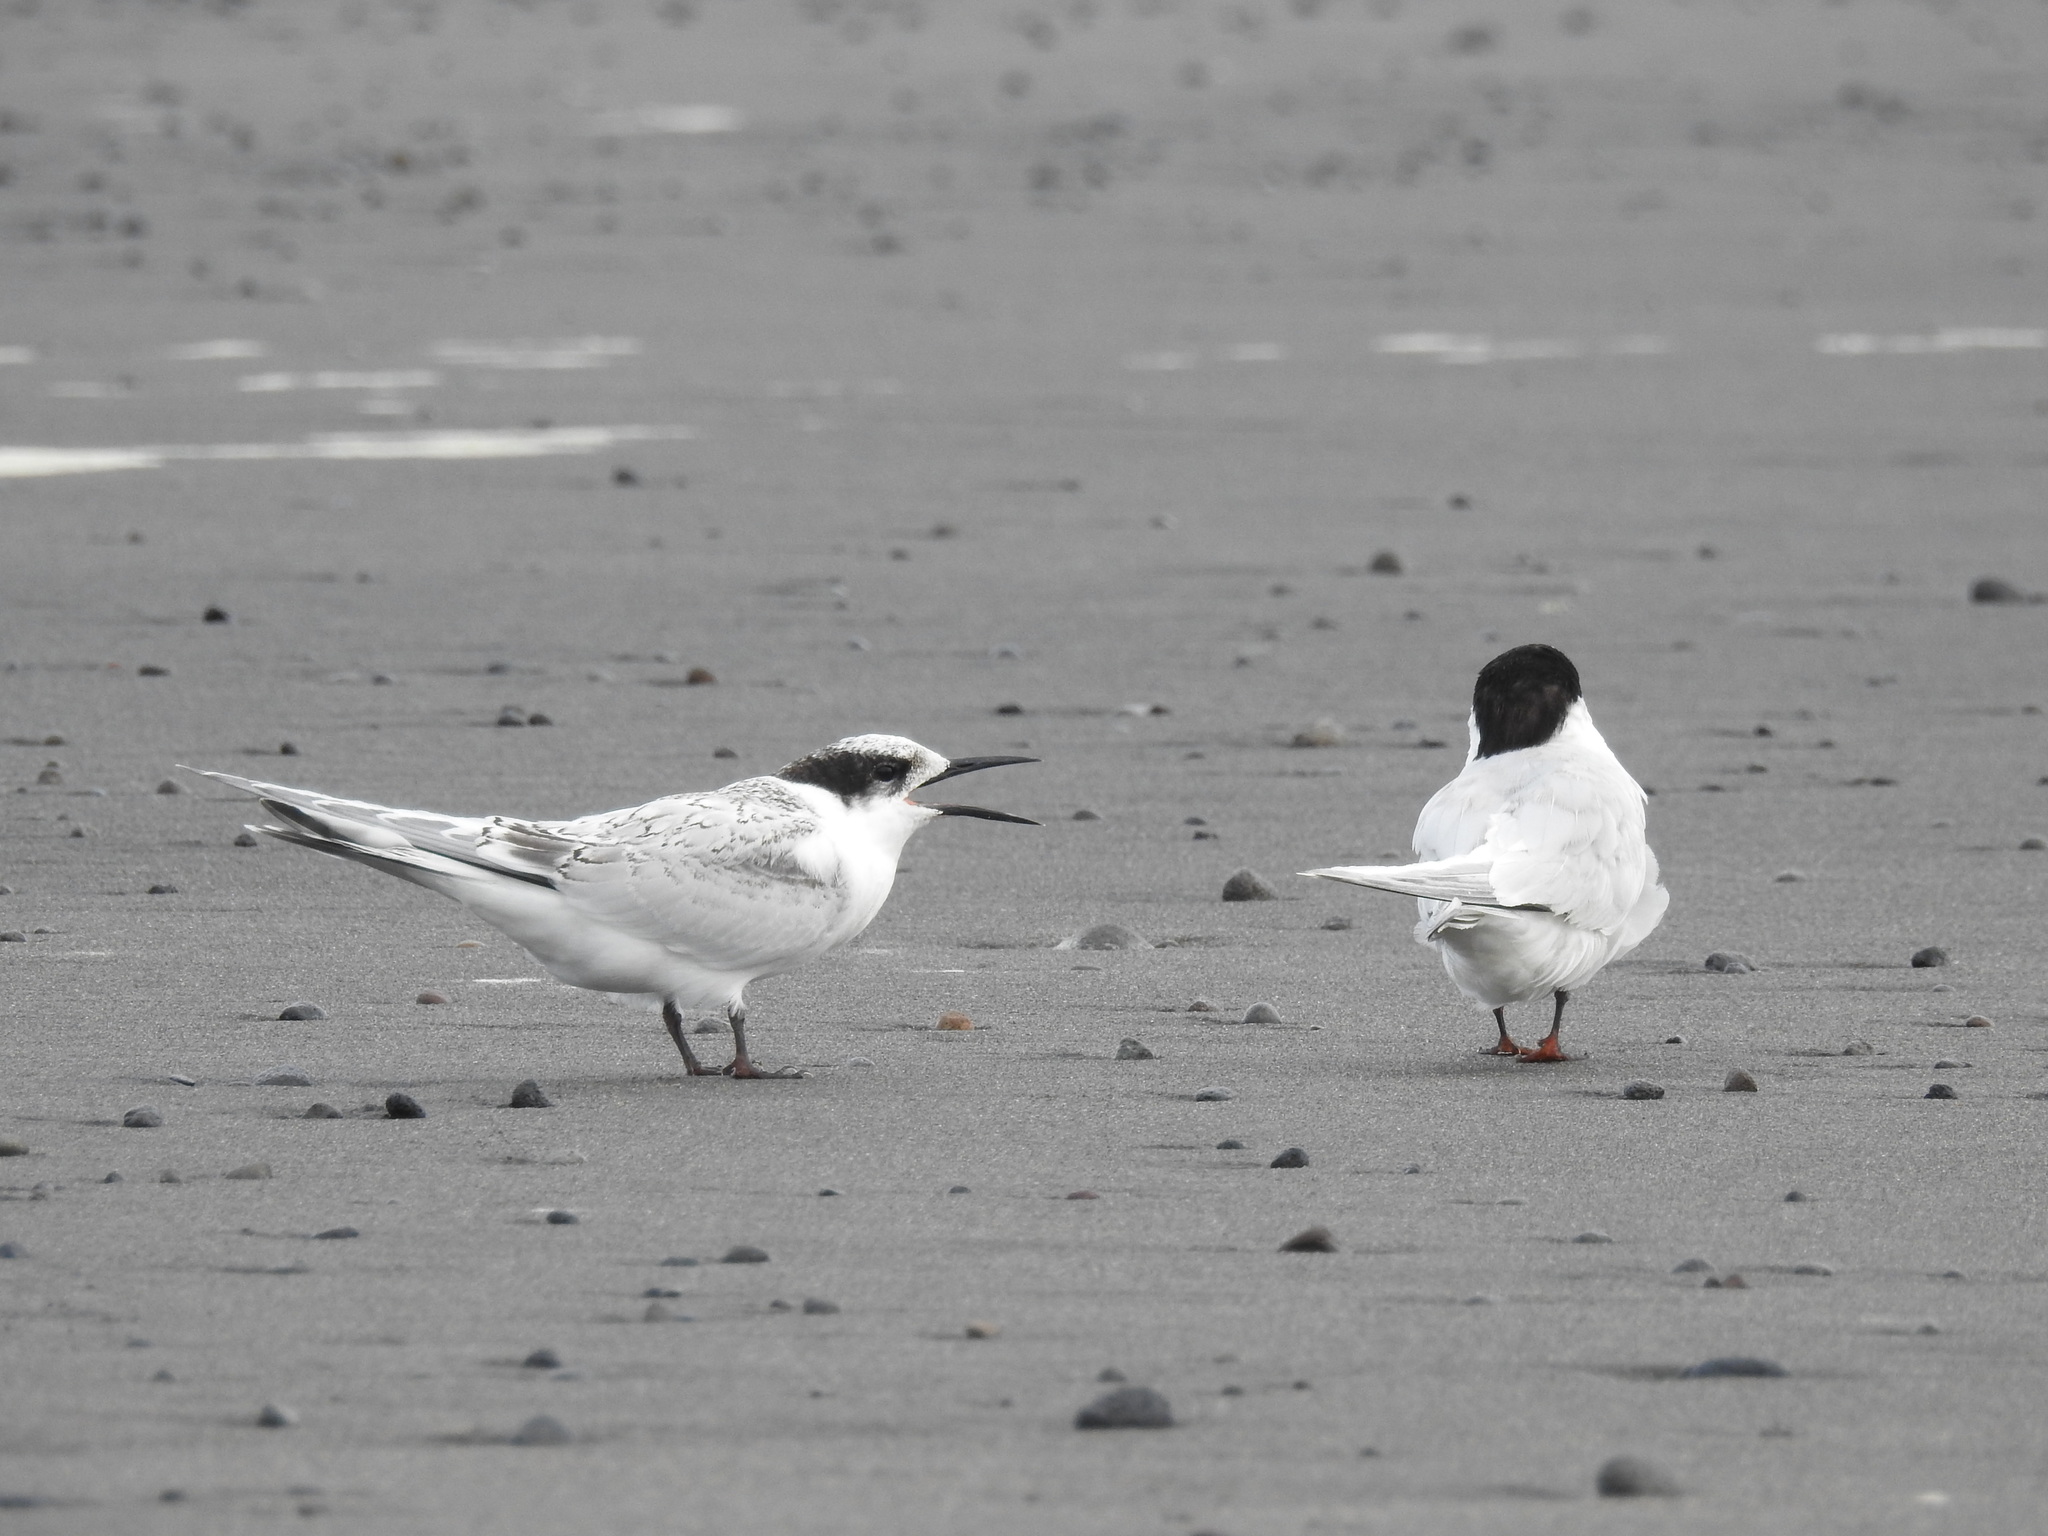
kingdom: Animalia
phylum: Chordata
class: Aves
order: Charadriiformes
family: Laridae
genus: Sterna
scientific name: Sterna striata
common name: White-fronted tern
